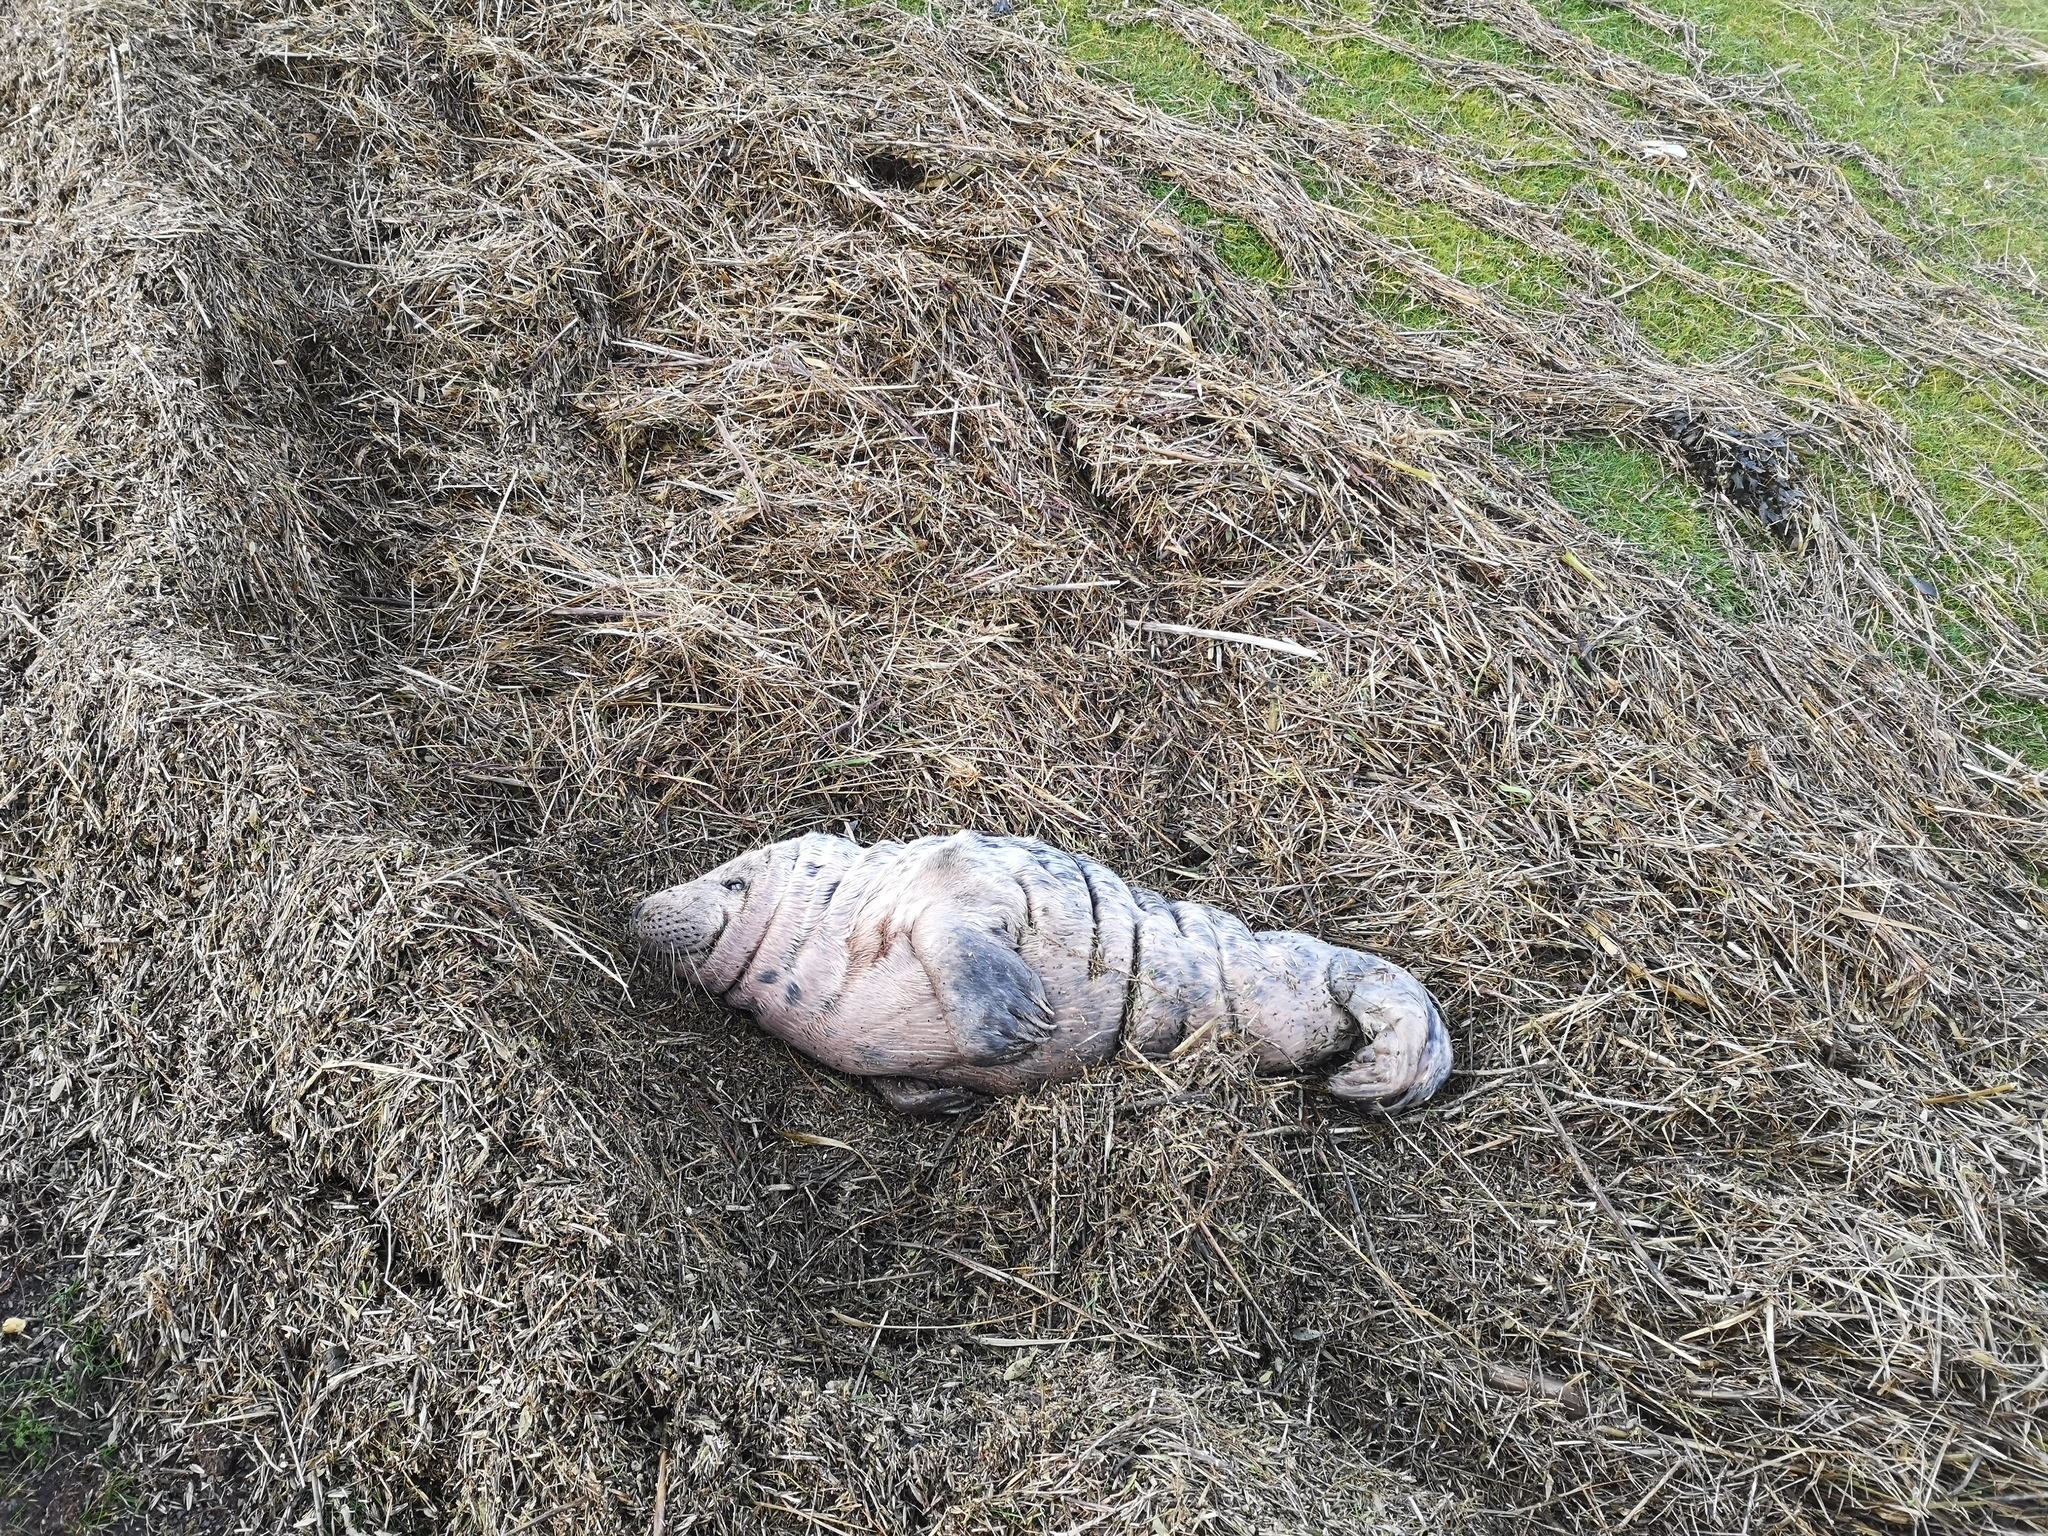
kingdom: Animalia
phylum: Chordata
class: Mammalia
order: Carnivora
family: Phocidae
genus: Halichoerus
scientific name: Halichoerus grypus
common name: Grey seal
